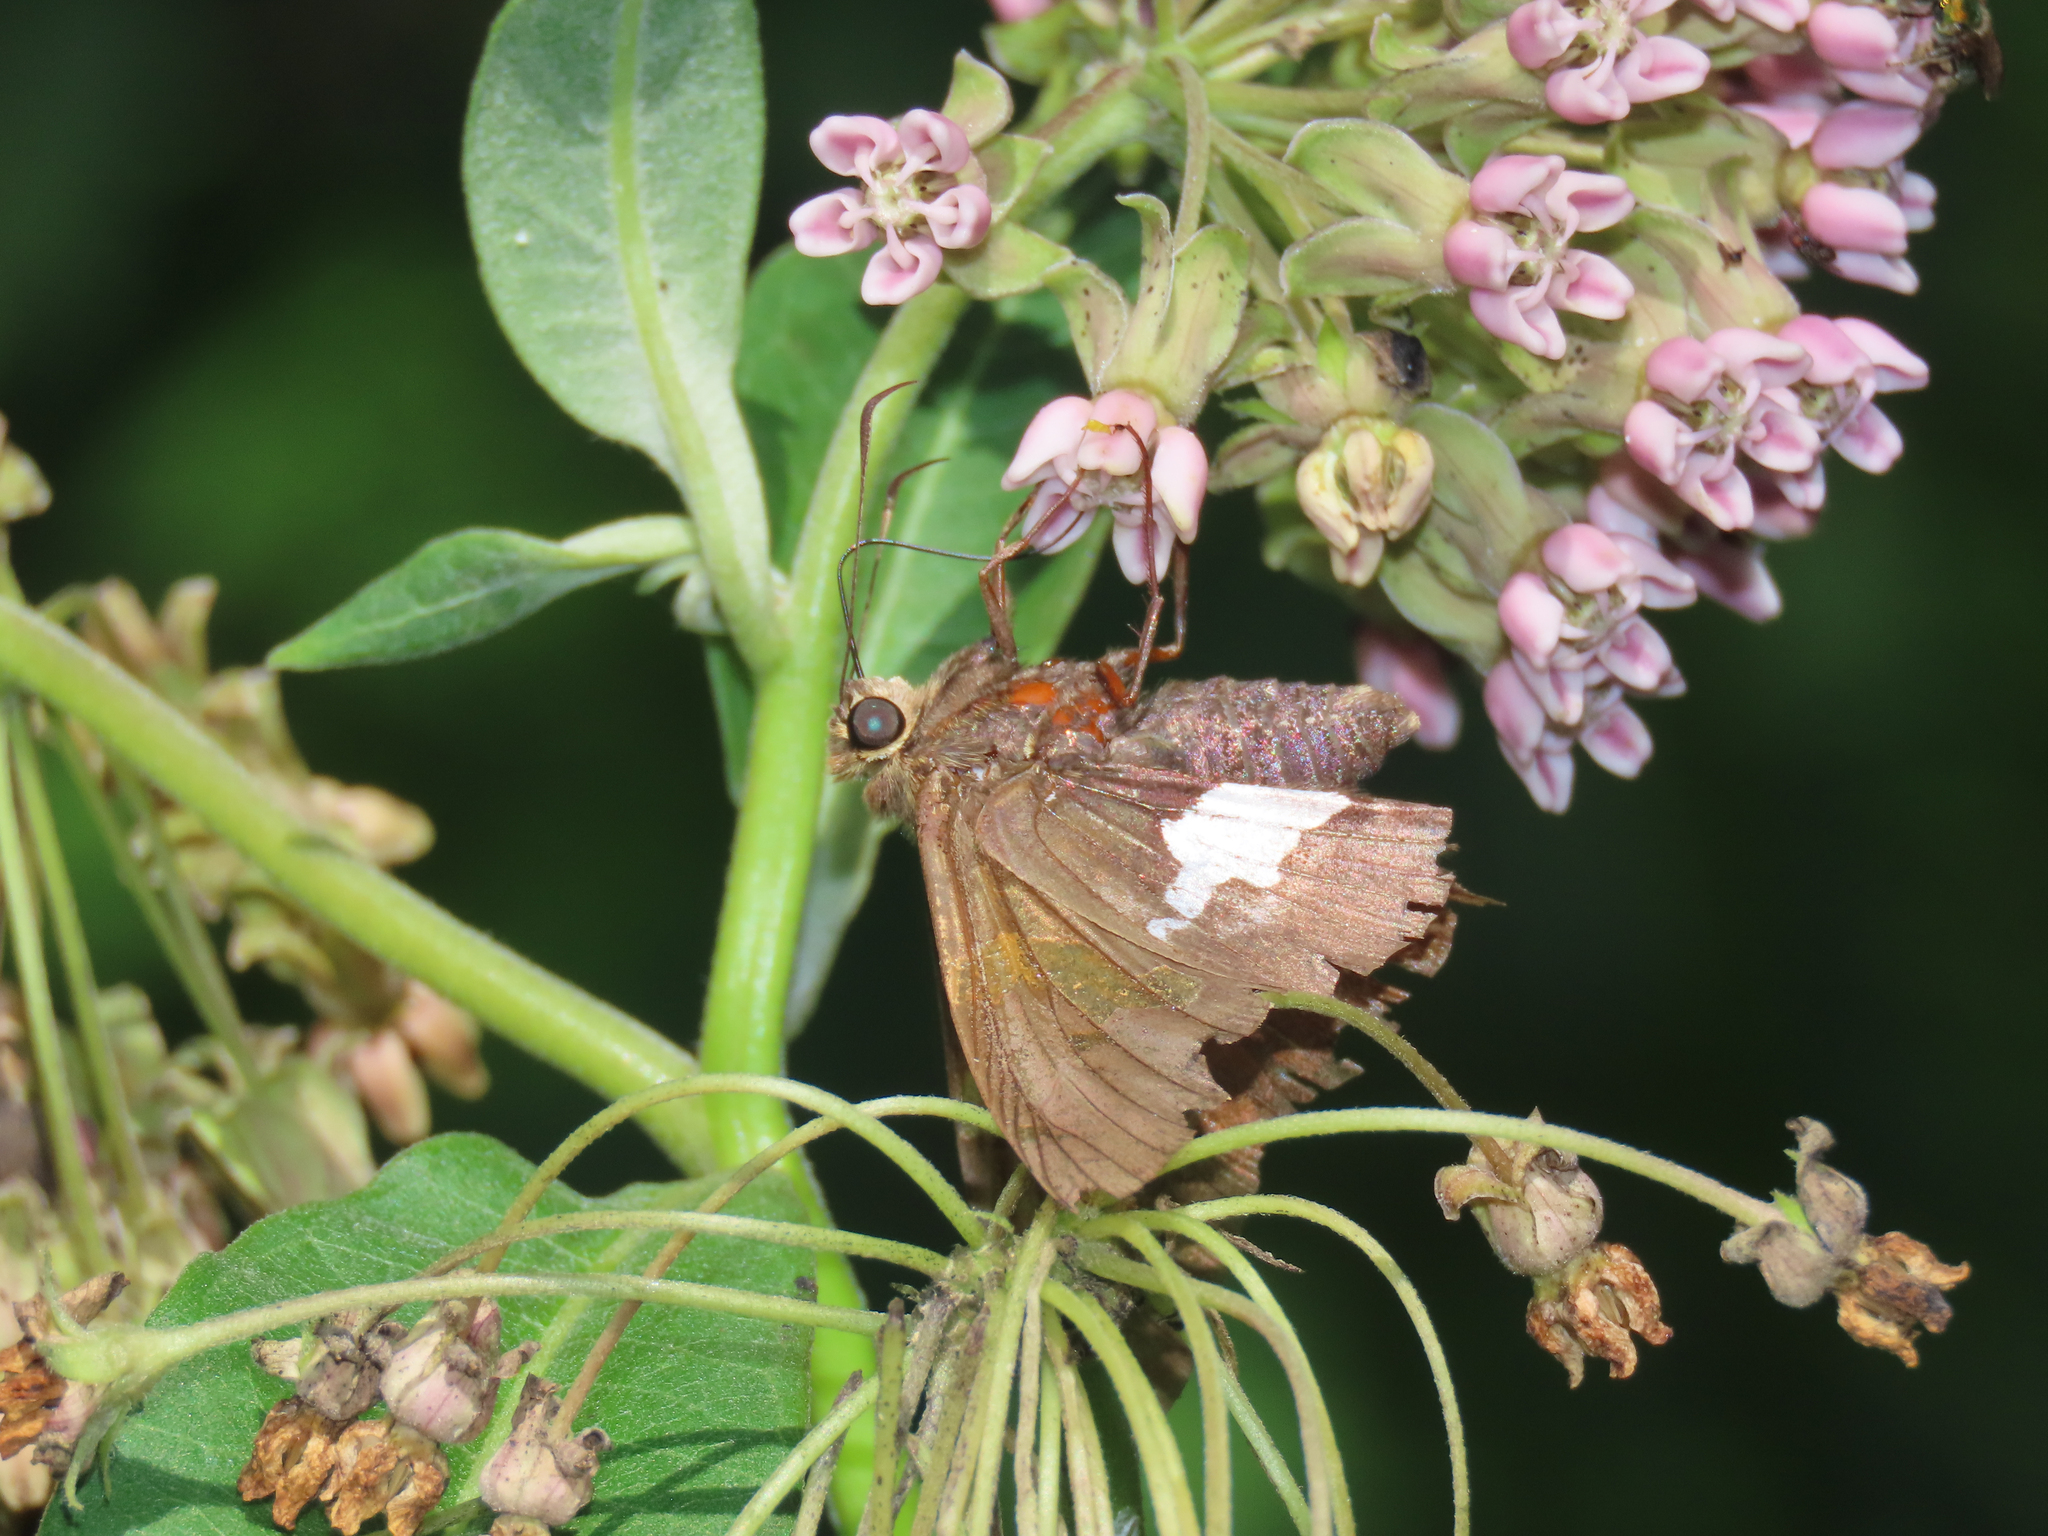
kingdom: Animalia
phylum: Arthropoda
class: Insecta
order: Lepidoptera
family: Hesperiidae
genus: Epargyreus
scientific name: Epargyreus clarus
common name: Silver-spotted skipper
